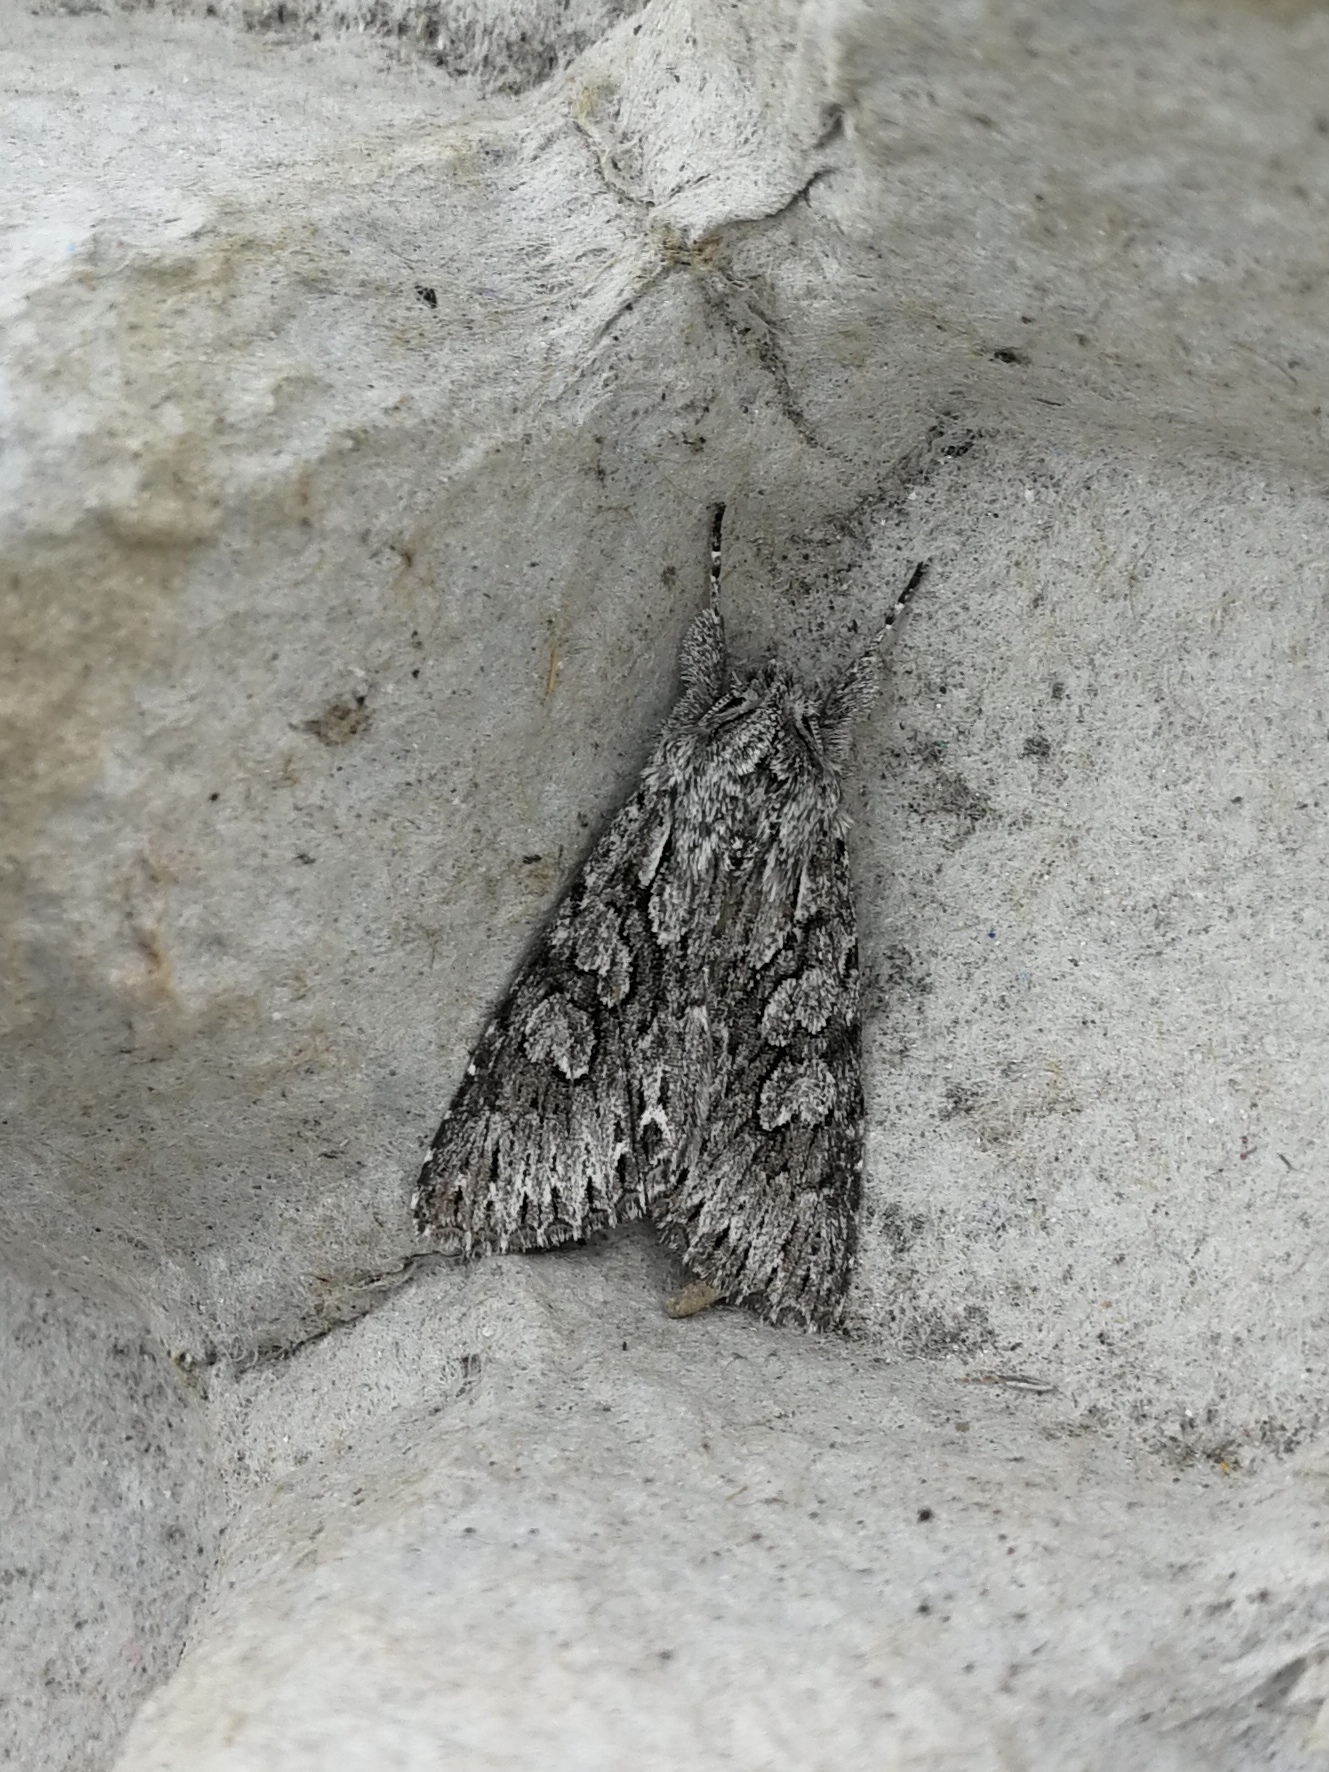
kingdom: Animalia
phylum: Arthropoda
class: Insecta
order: Lepidoptera
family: Noctuidae
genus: Xylocampa
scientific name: Xylocampa areola
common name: Early grey
